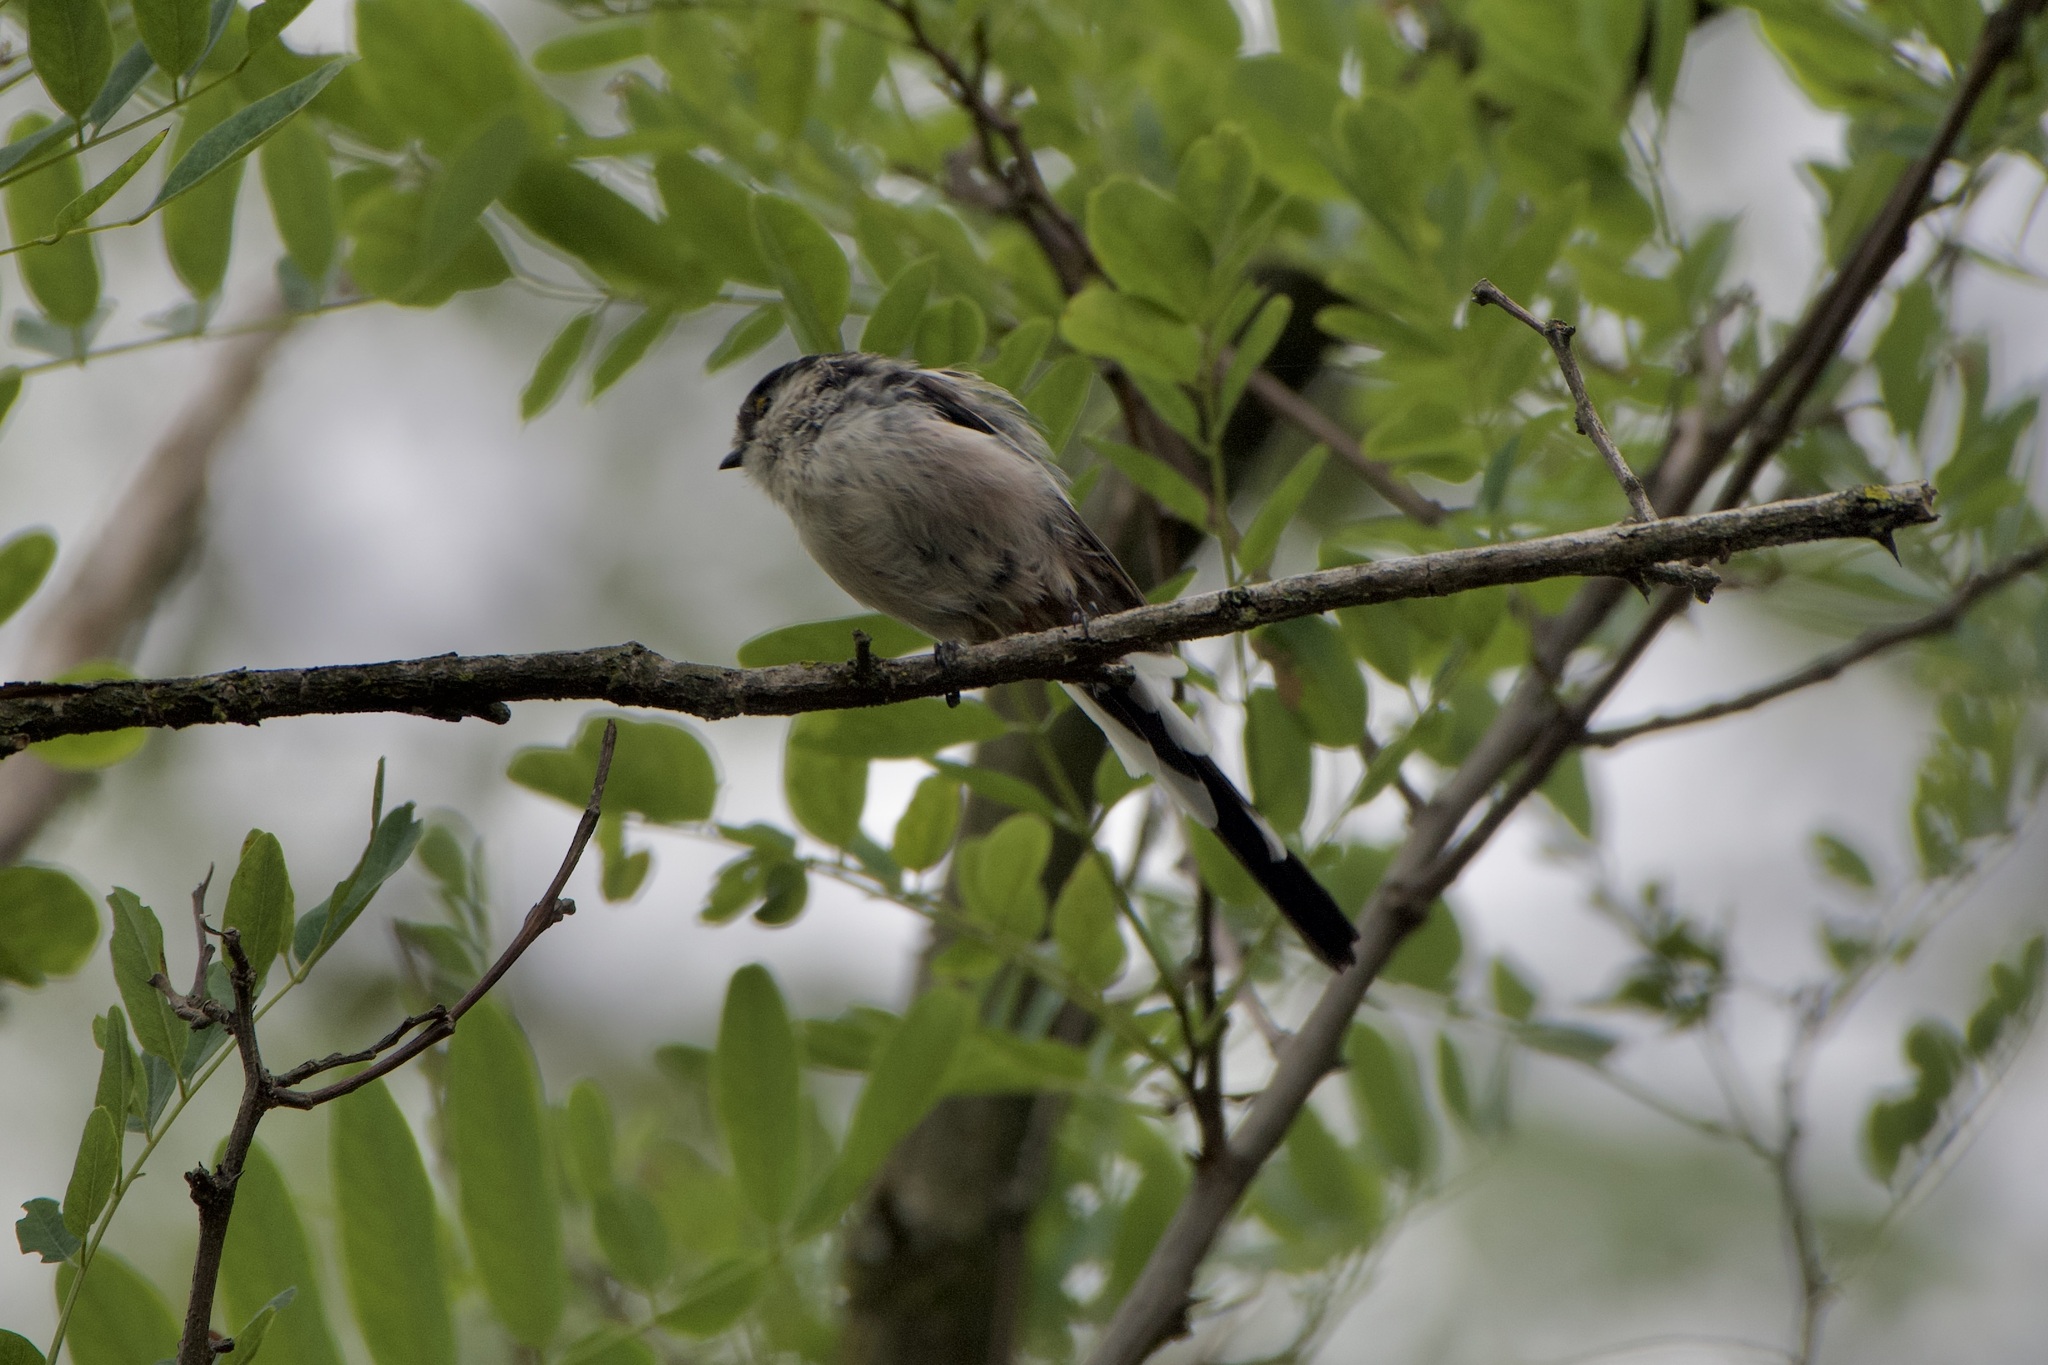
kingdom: Animalia
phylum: Chordata
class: Aves
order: Passeriformes
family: Aegithalidae
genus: Aegithalos
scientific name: Aegithalos caudatus
